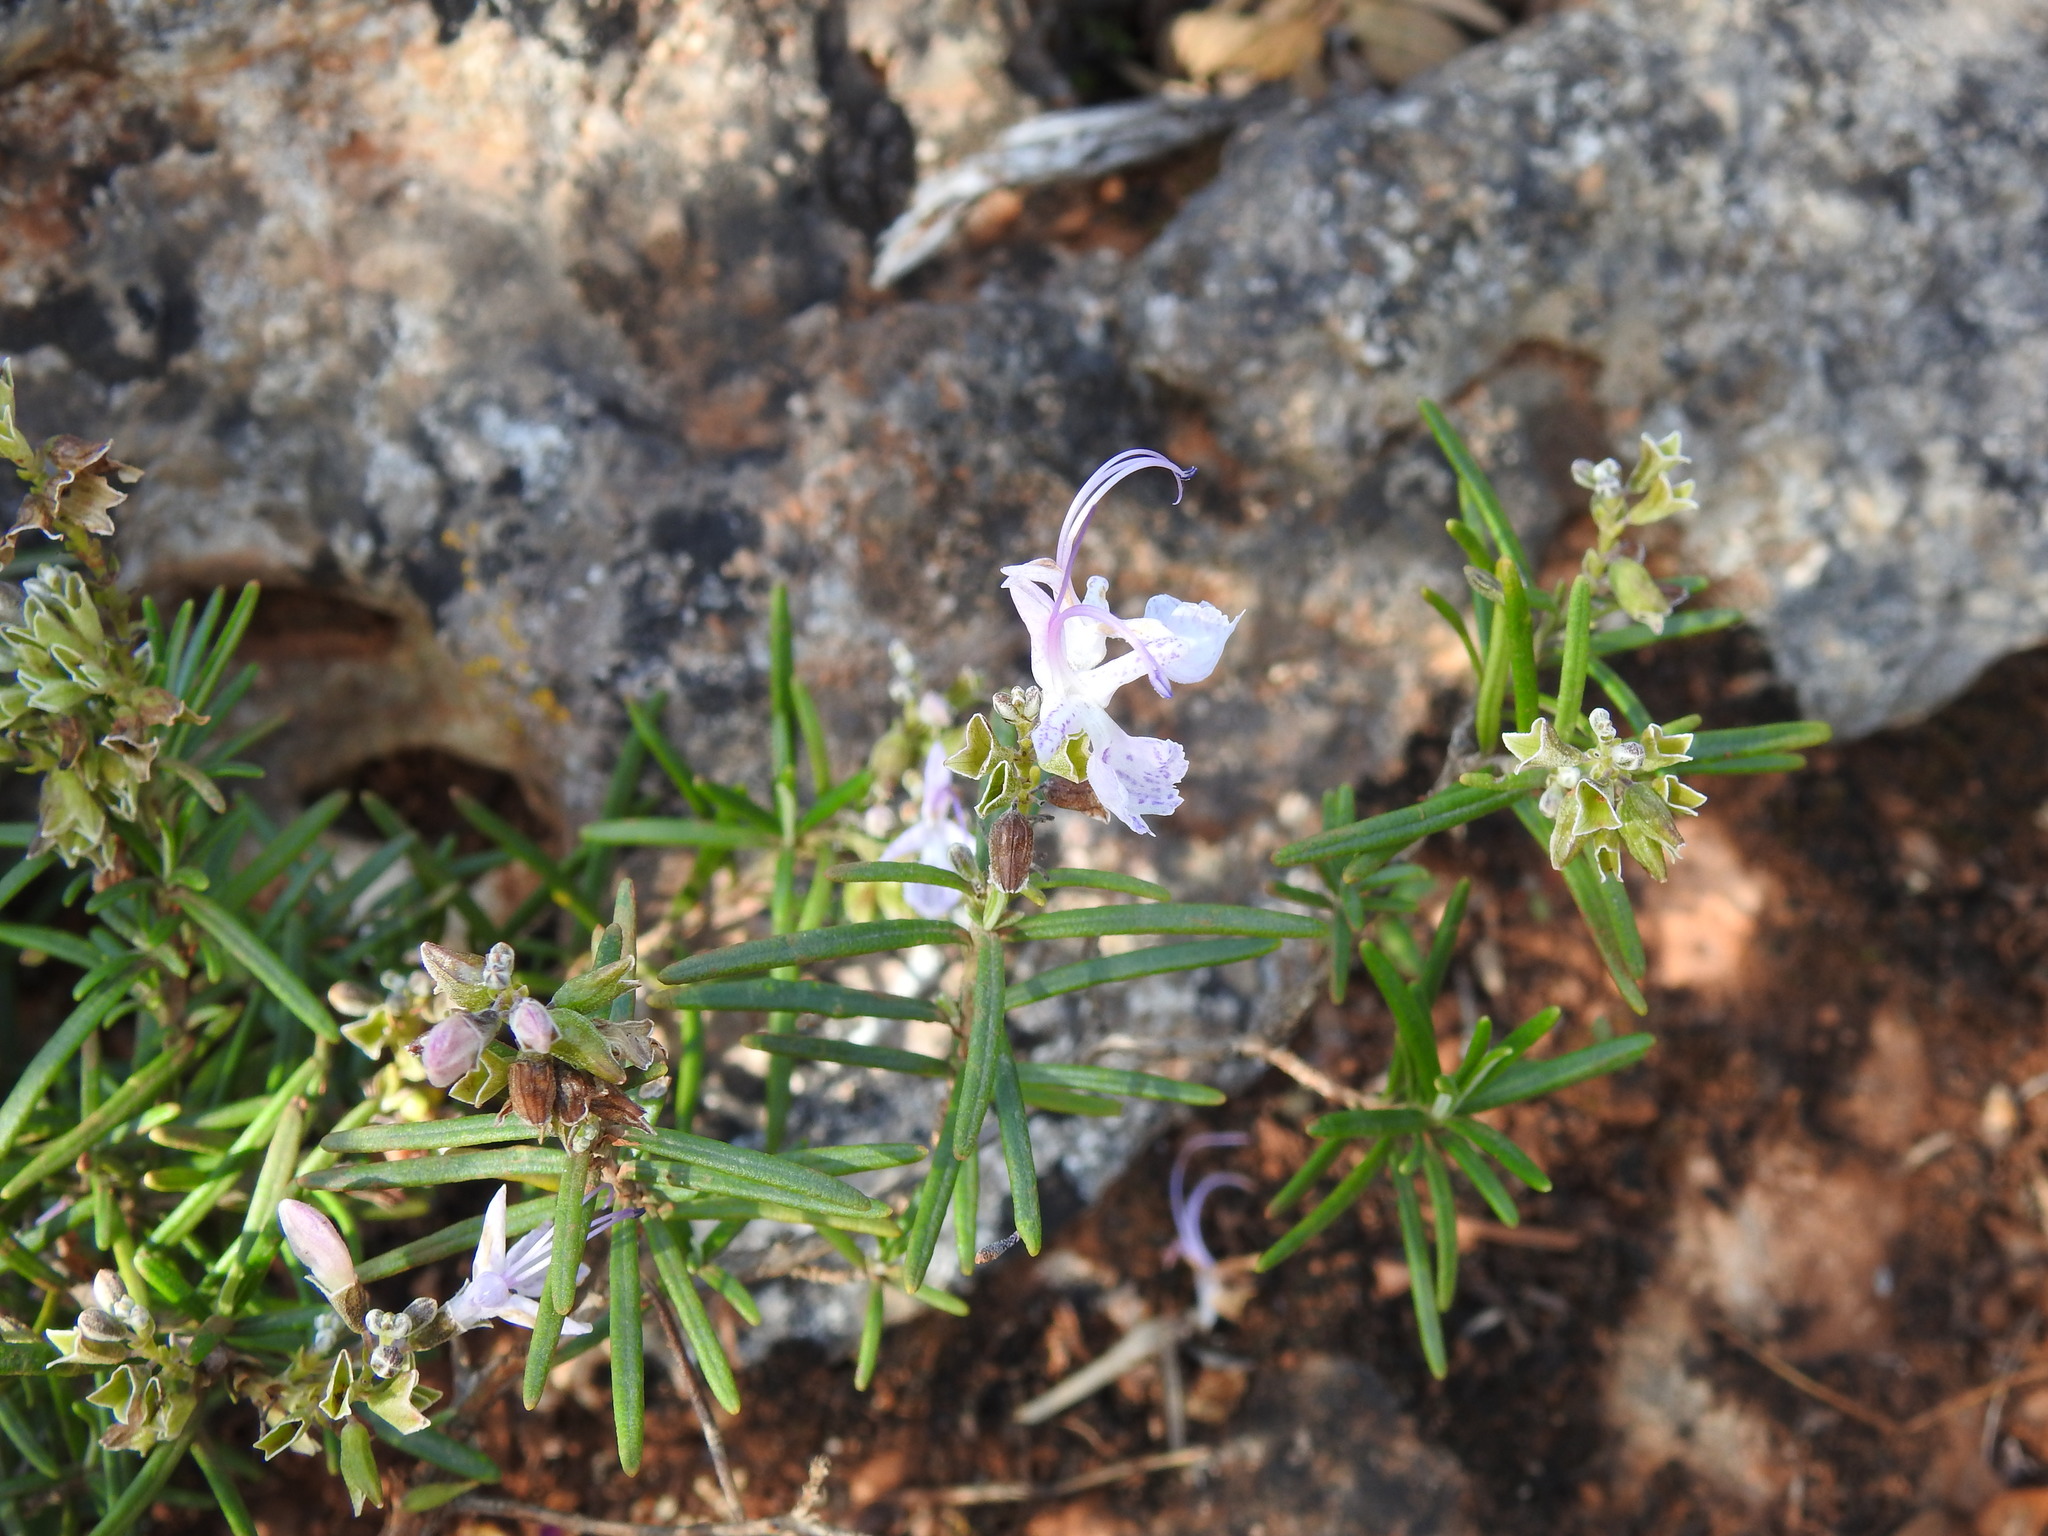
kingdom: Plantae
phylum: Tracheophyta
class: Magnoliopsida
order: Lamiales
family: Lamiaceae
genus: Salvia
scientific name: Salvia rosmarinus
